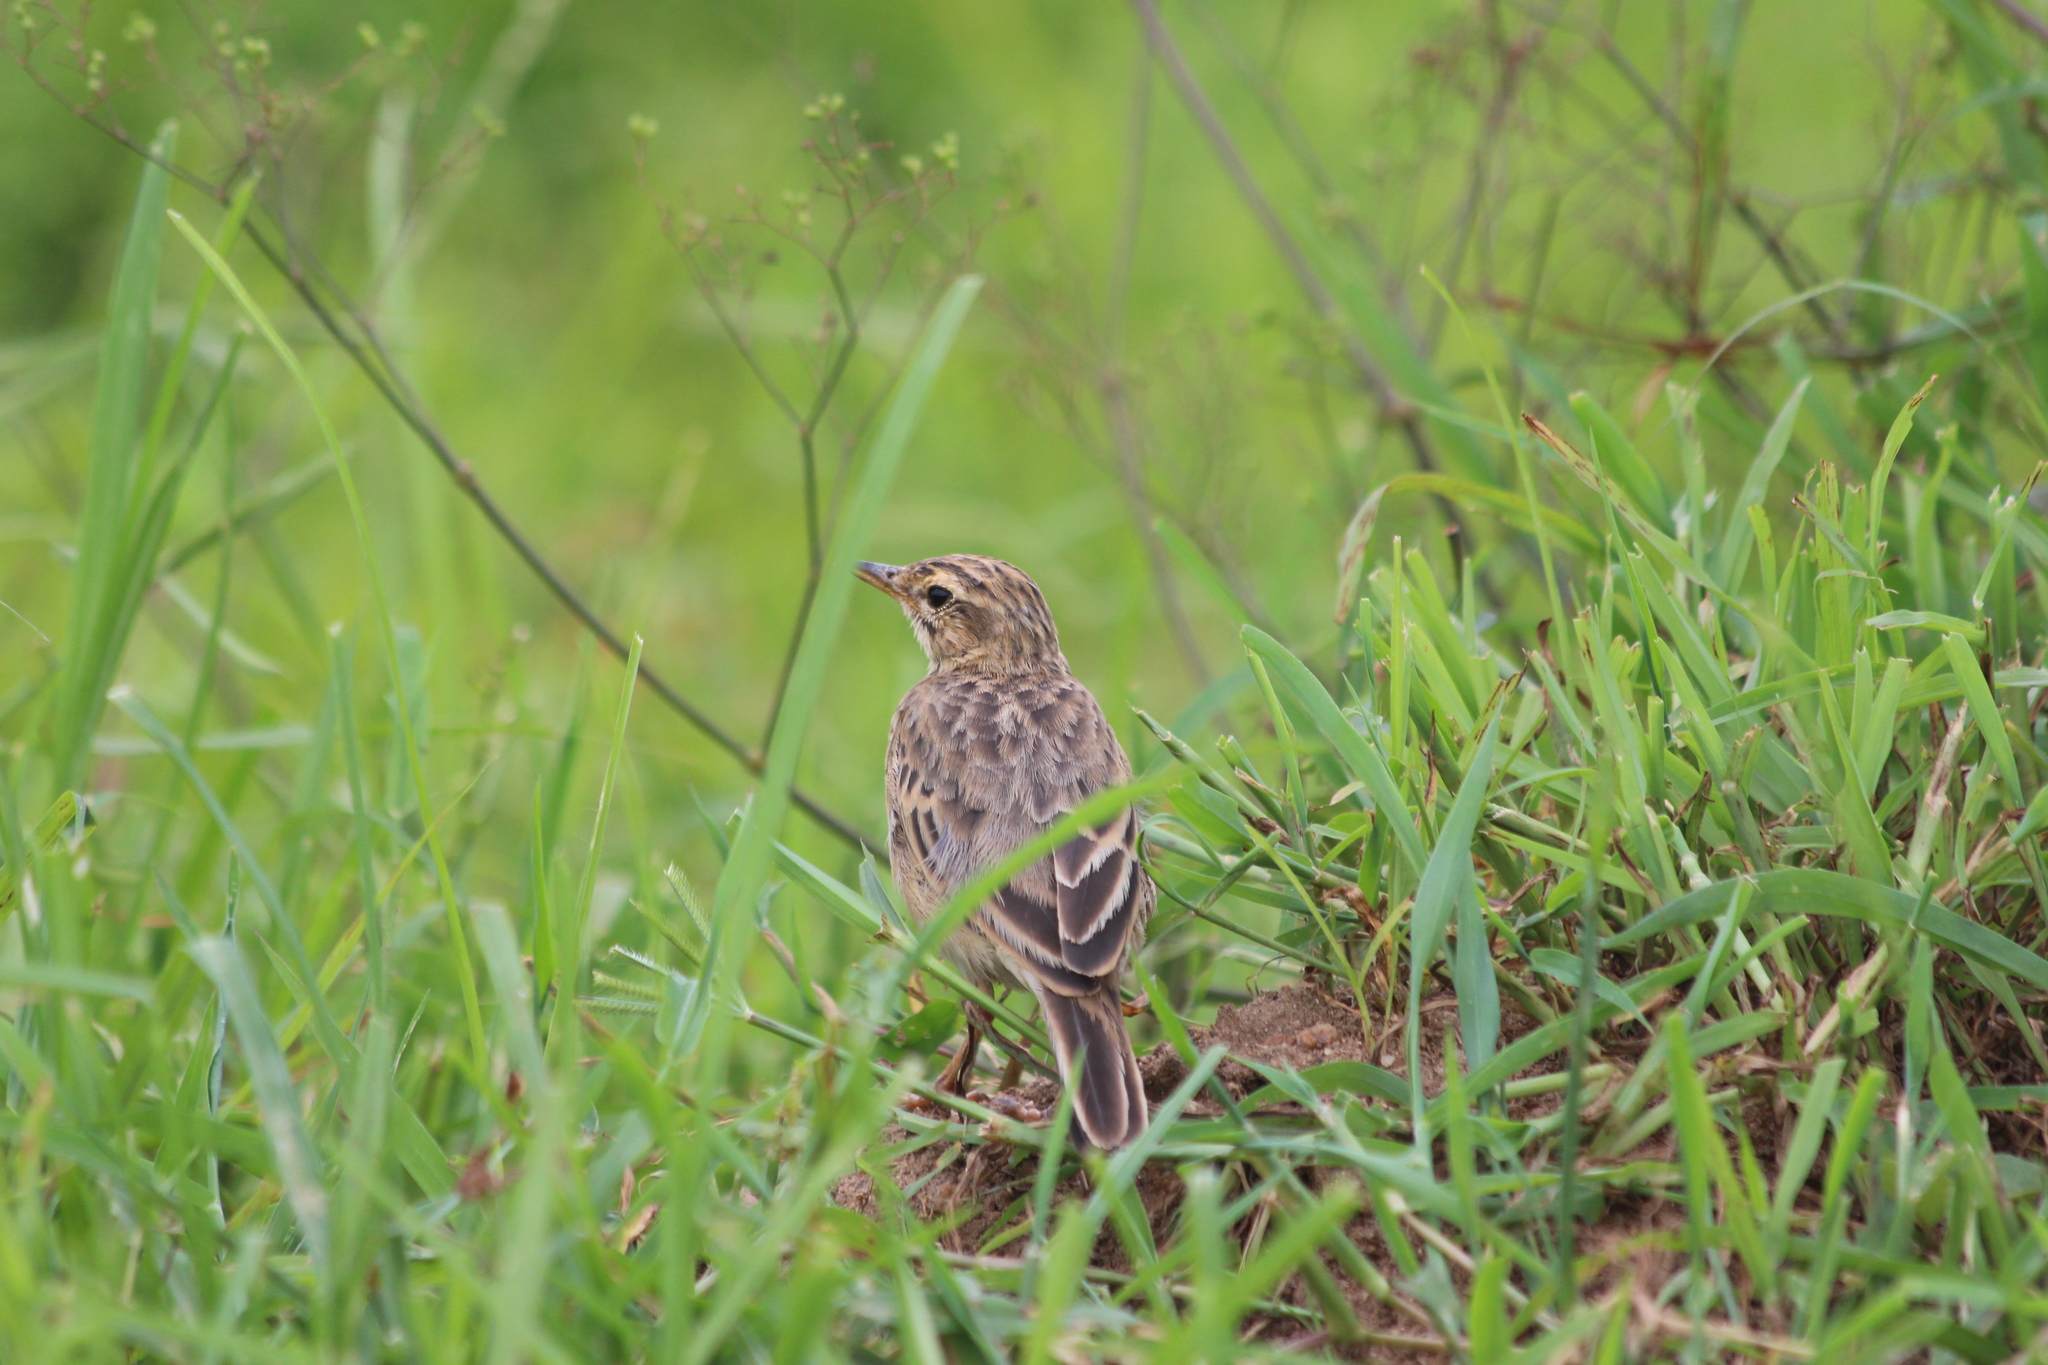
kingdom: Animalia
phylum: Chordata
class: Aves
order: Passeriformes
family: Motacillidae
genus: Anthus
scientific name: Anthus cinnamomeus
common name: African pipit
